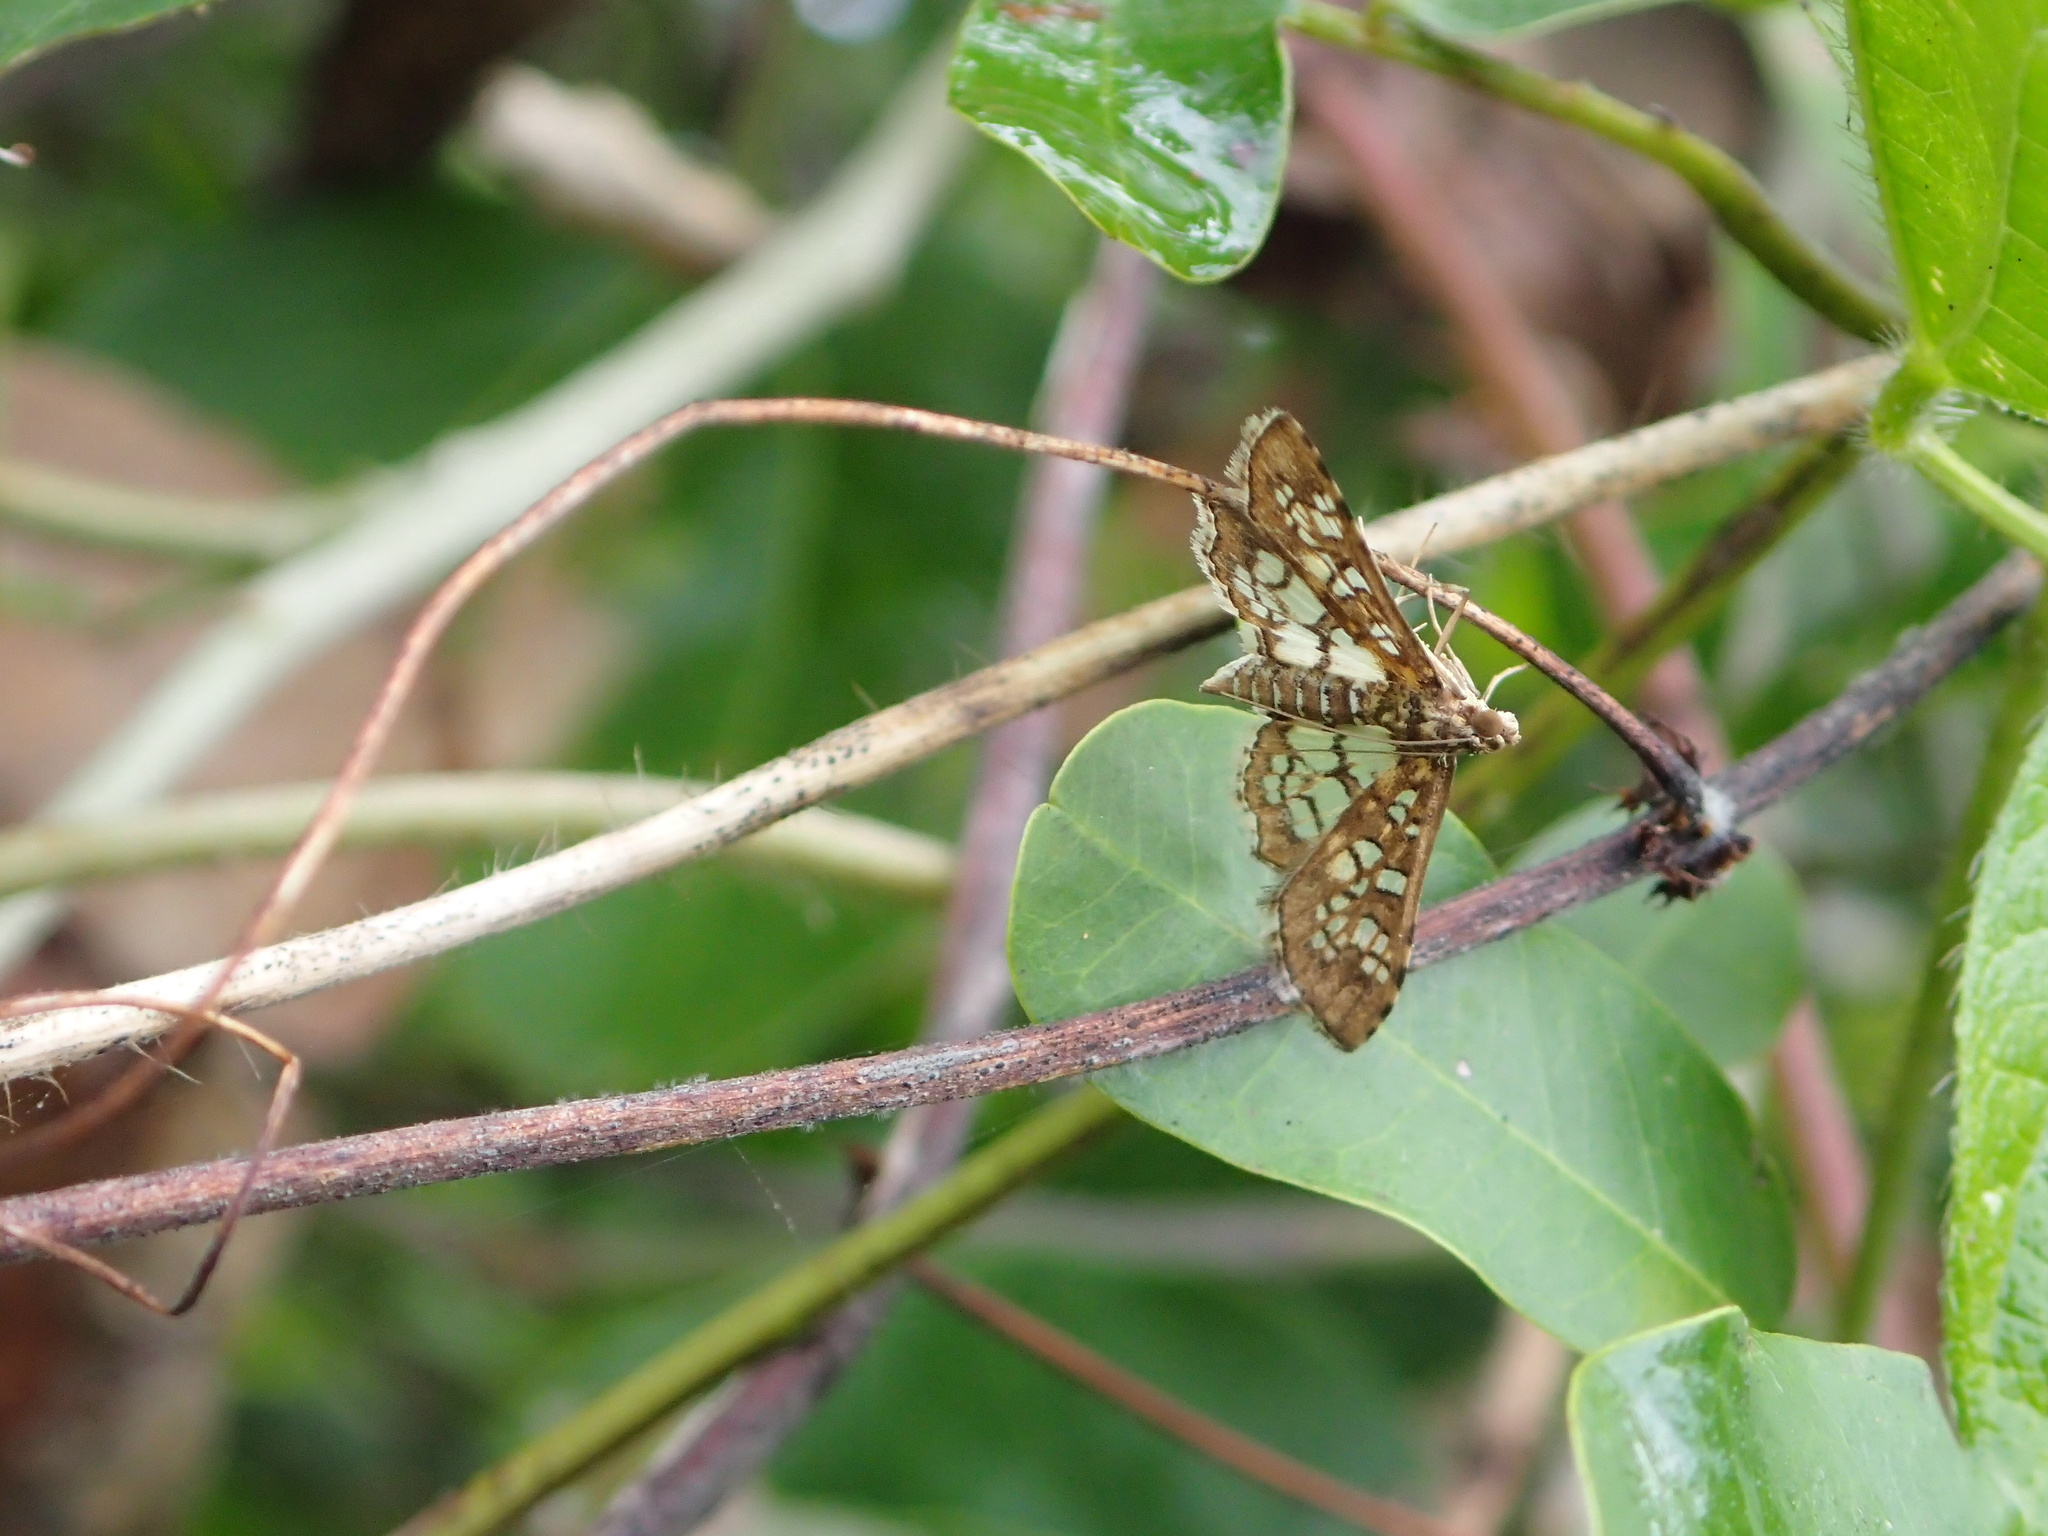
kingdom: Animalia
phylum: Arthropoda
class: Insecta
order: Lepidoptera
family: Crambidae
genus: Samea
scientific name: Samea ecclesialis
